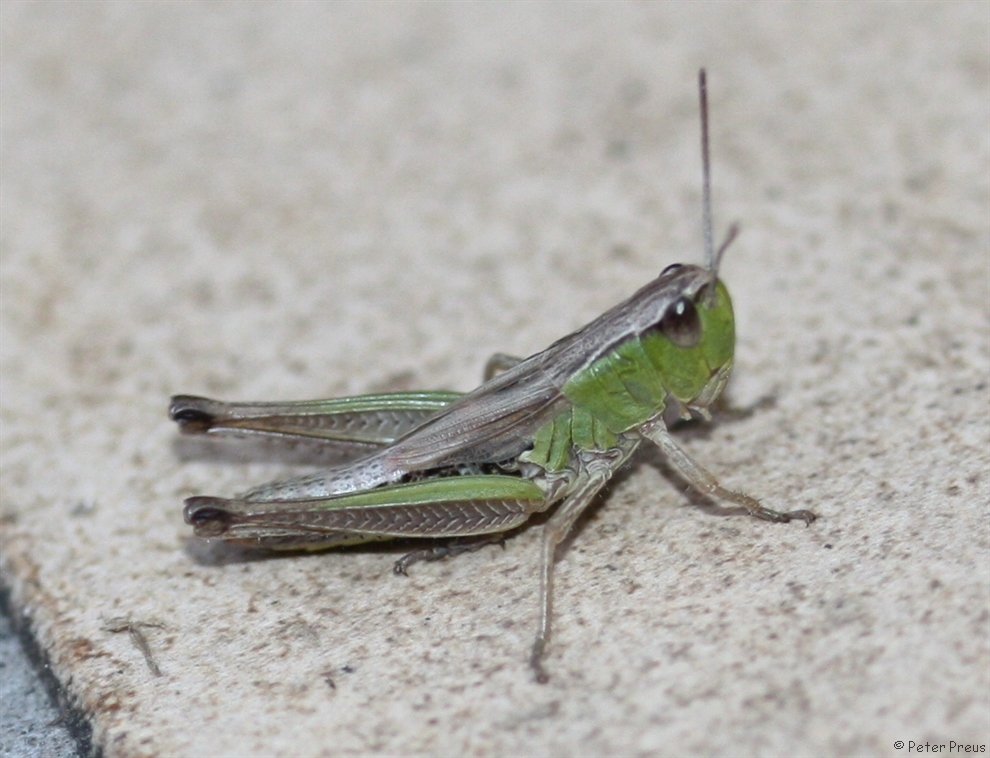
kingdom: Animalia
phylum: Arthropoda
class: Insecta
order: Orthoptera
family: Acrididae
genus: Pseudochorthippus
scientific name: Pseudochorthippus parallelus
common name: Meadow grasshopper
